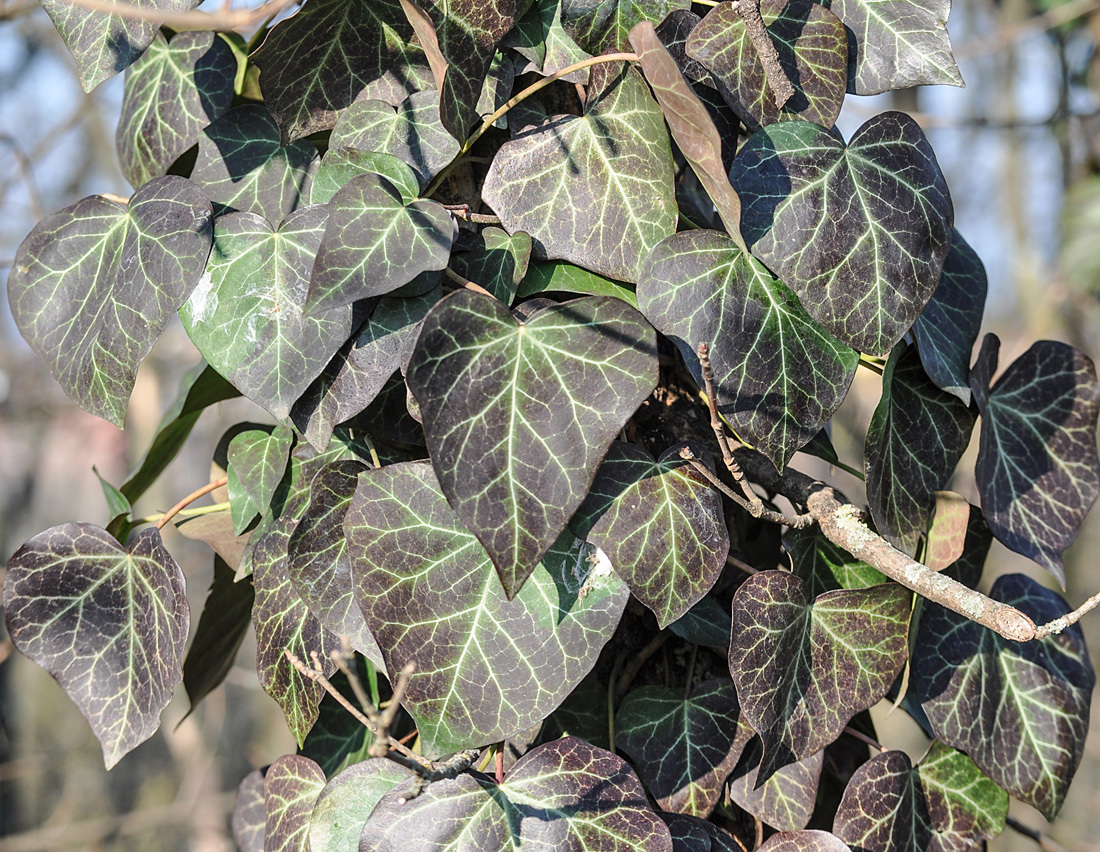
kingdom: Plantae
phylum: Tracheophyta
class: Magnoliopsida
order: Apiales
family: Araliaceae
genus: Hedera
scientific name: Hedera helix
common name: Ivy
